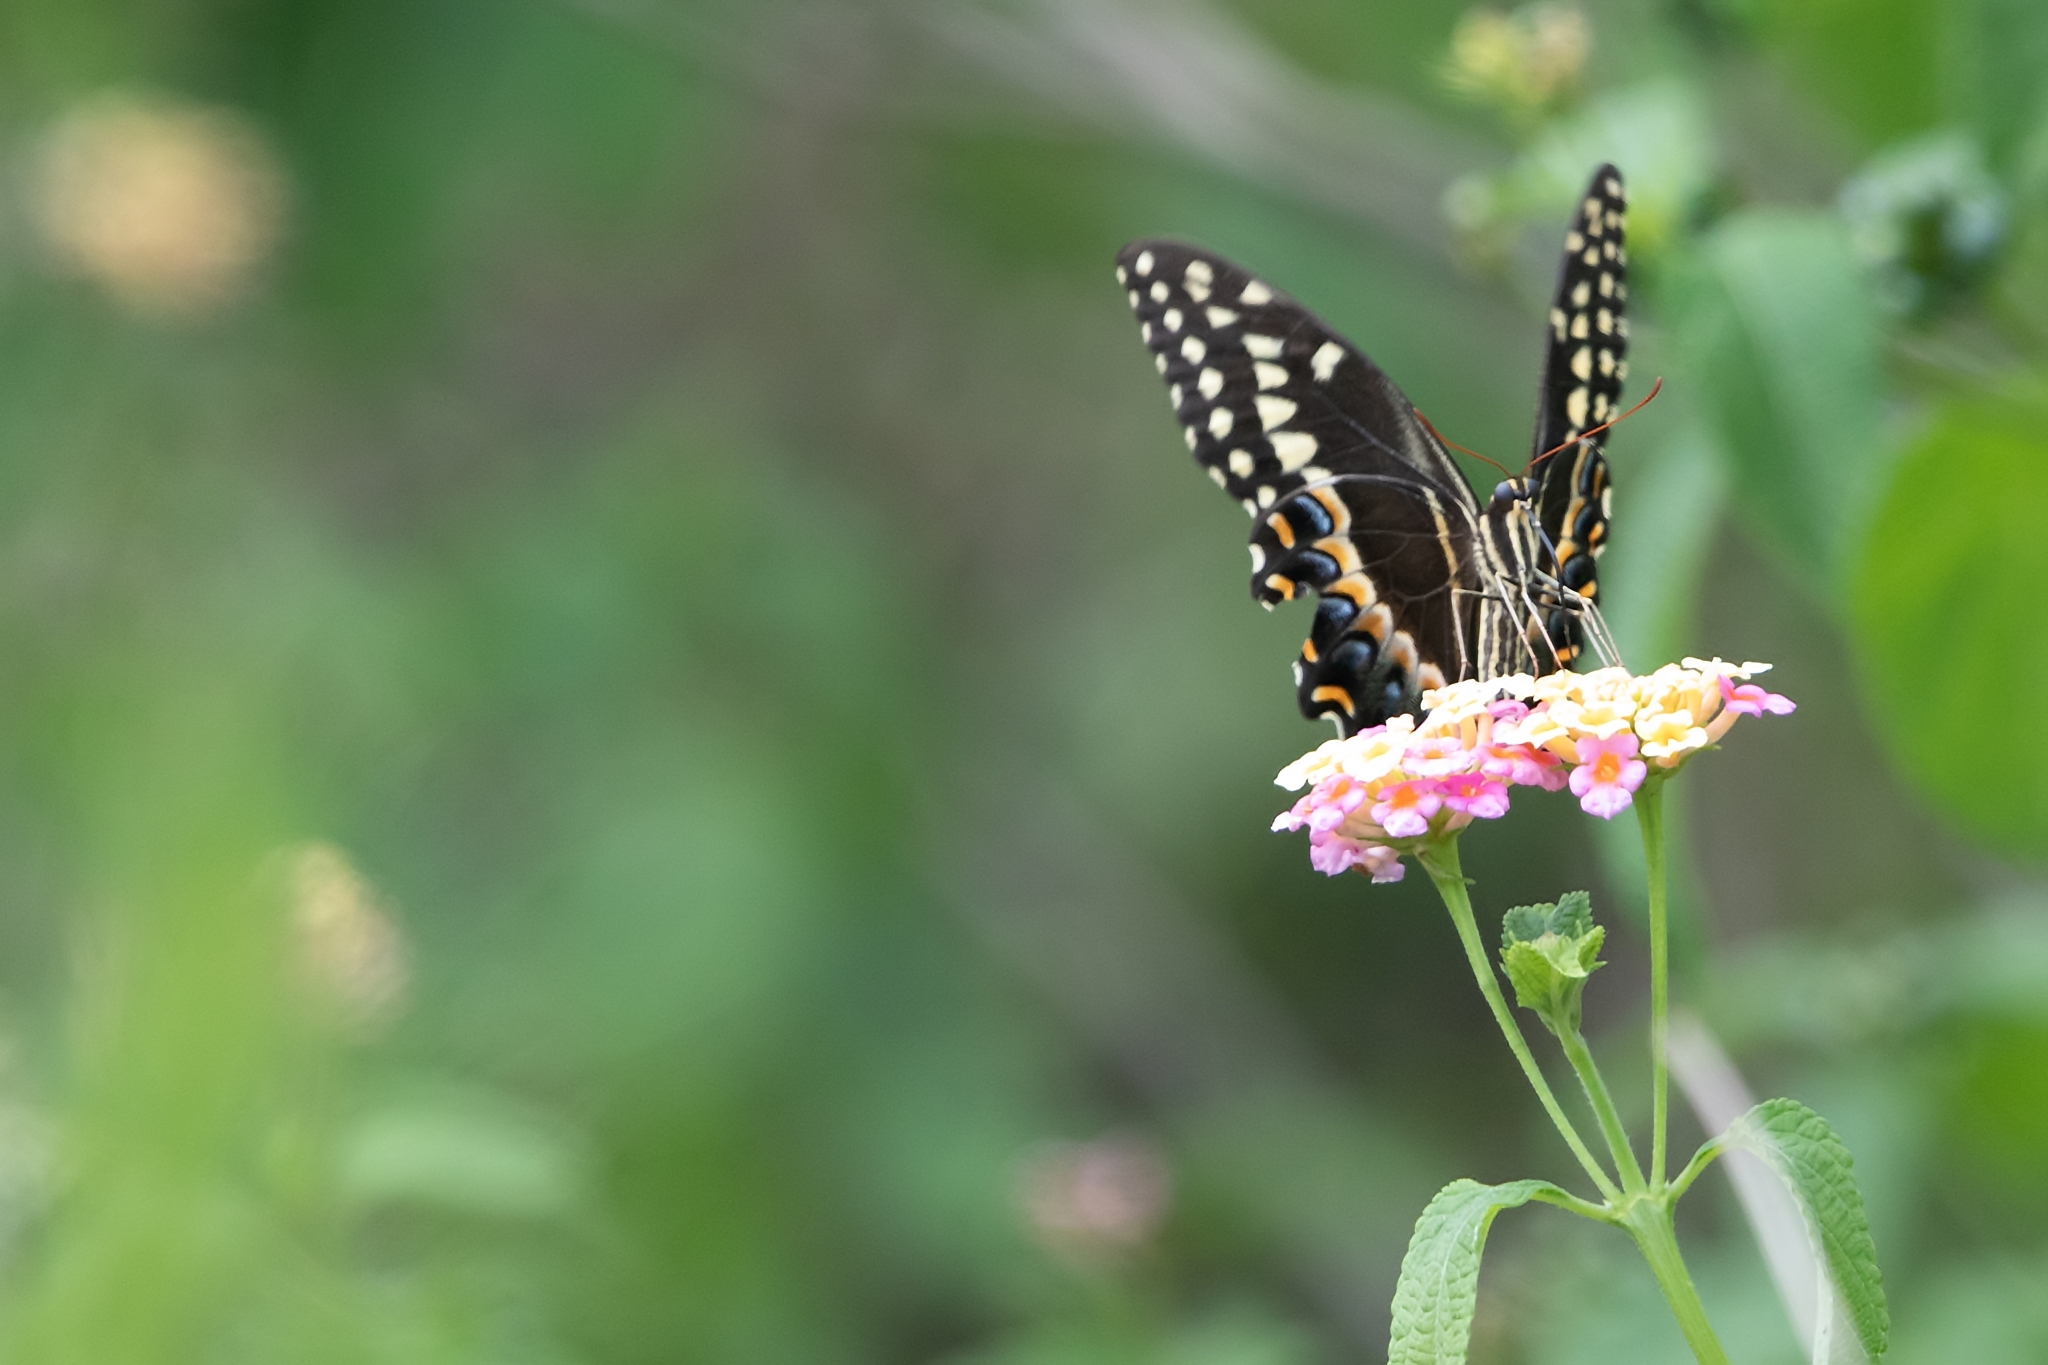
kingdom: Animalia
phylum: Arthropoda
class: Insecta
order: Lepidoptera
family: Papilionidae
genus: Papilio
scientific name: Papilio palamedes
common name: Palamedes swallowtail
